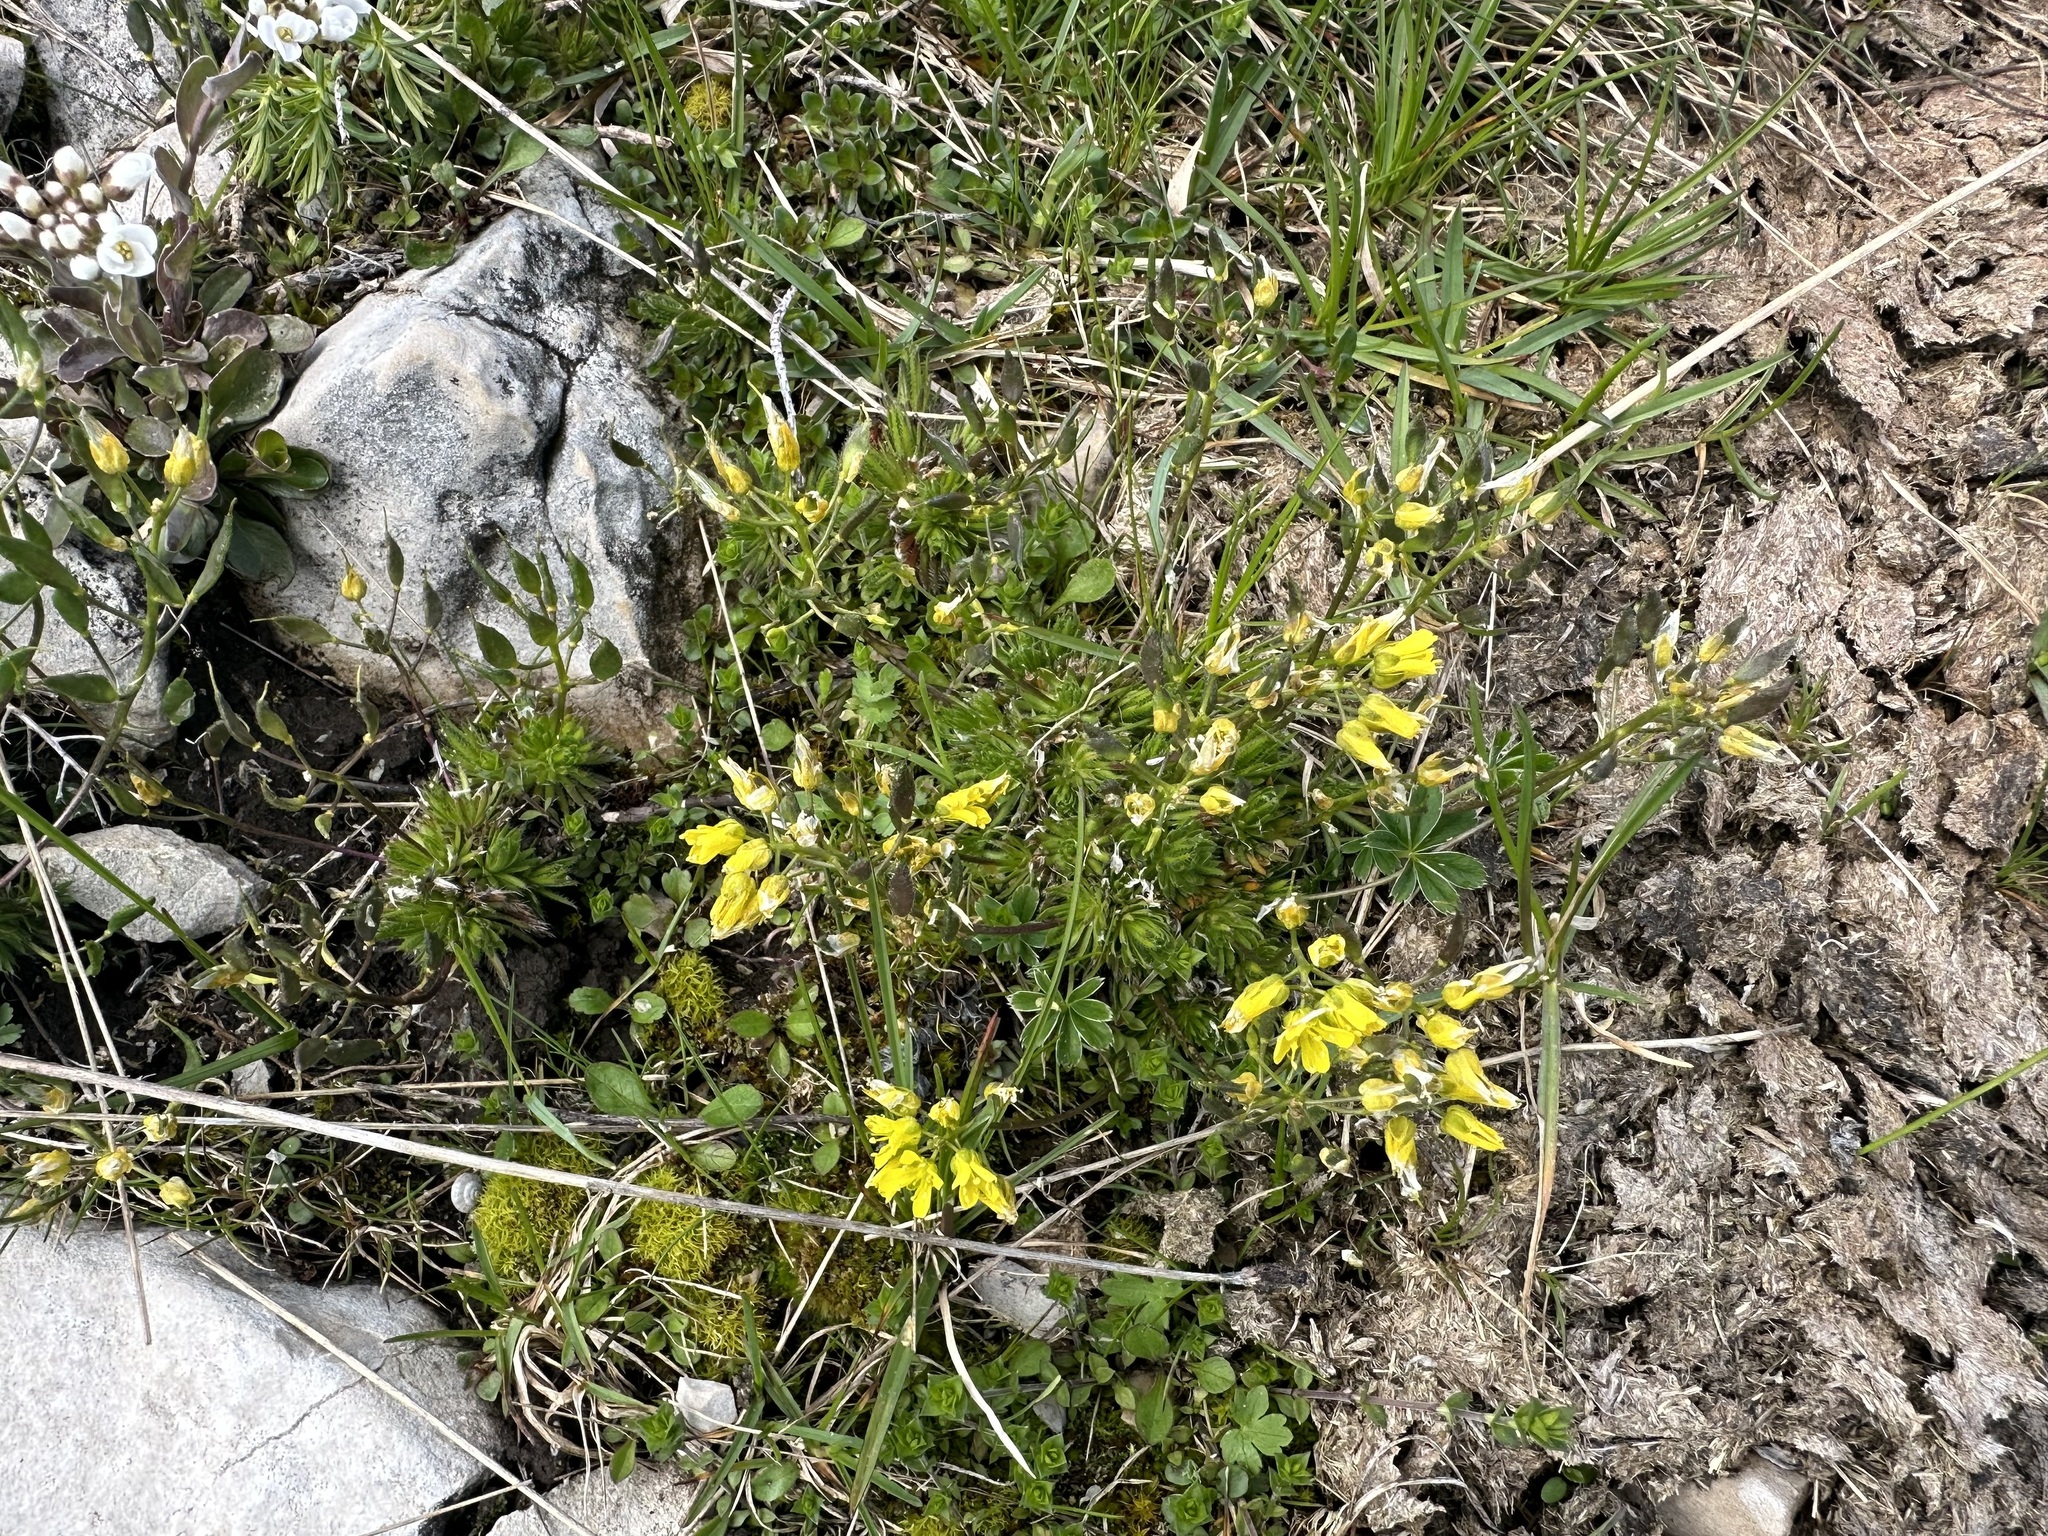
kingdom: Plantae
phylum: Tracheophyta
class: Magnoliopsida
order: Brassicales
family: Brassicaceae
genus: Draba
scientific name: Draba aizoides
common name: Yellow whitlowgrass
